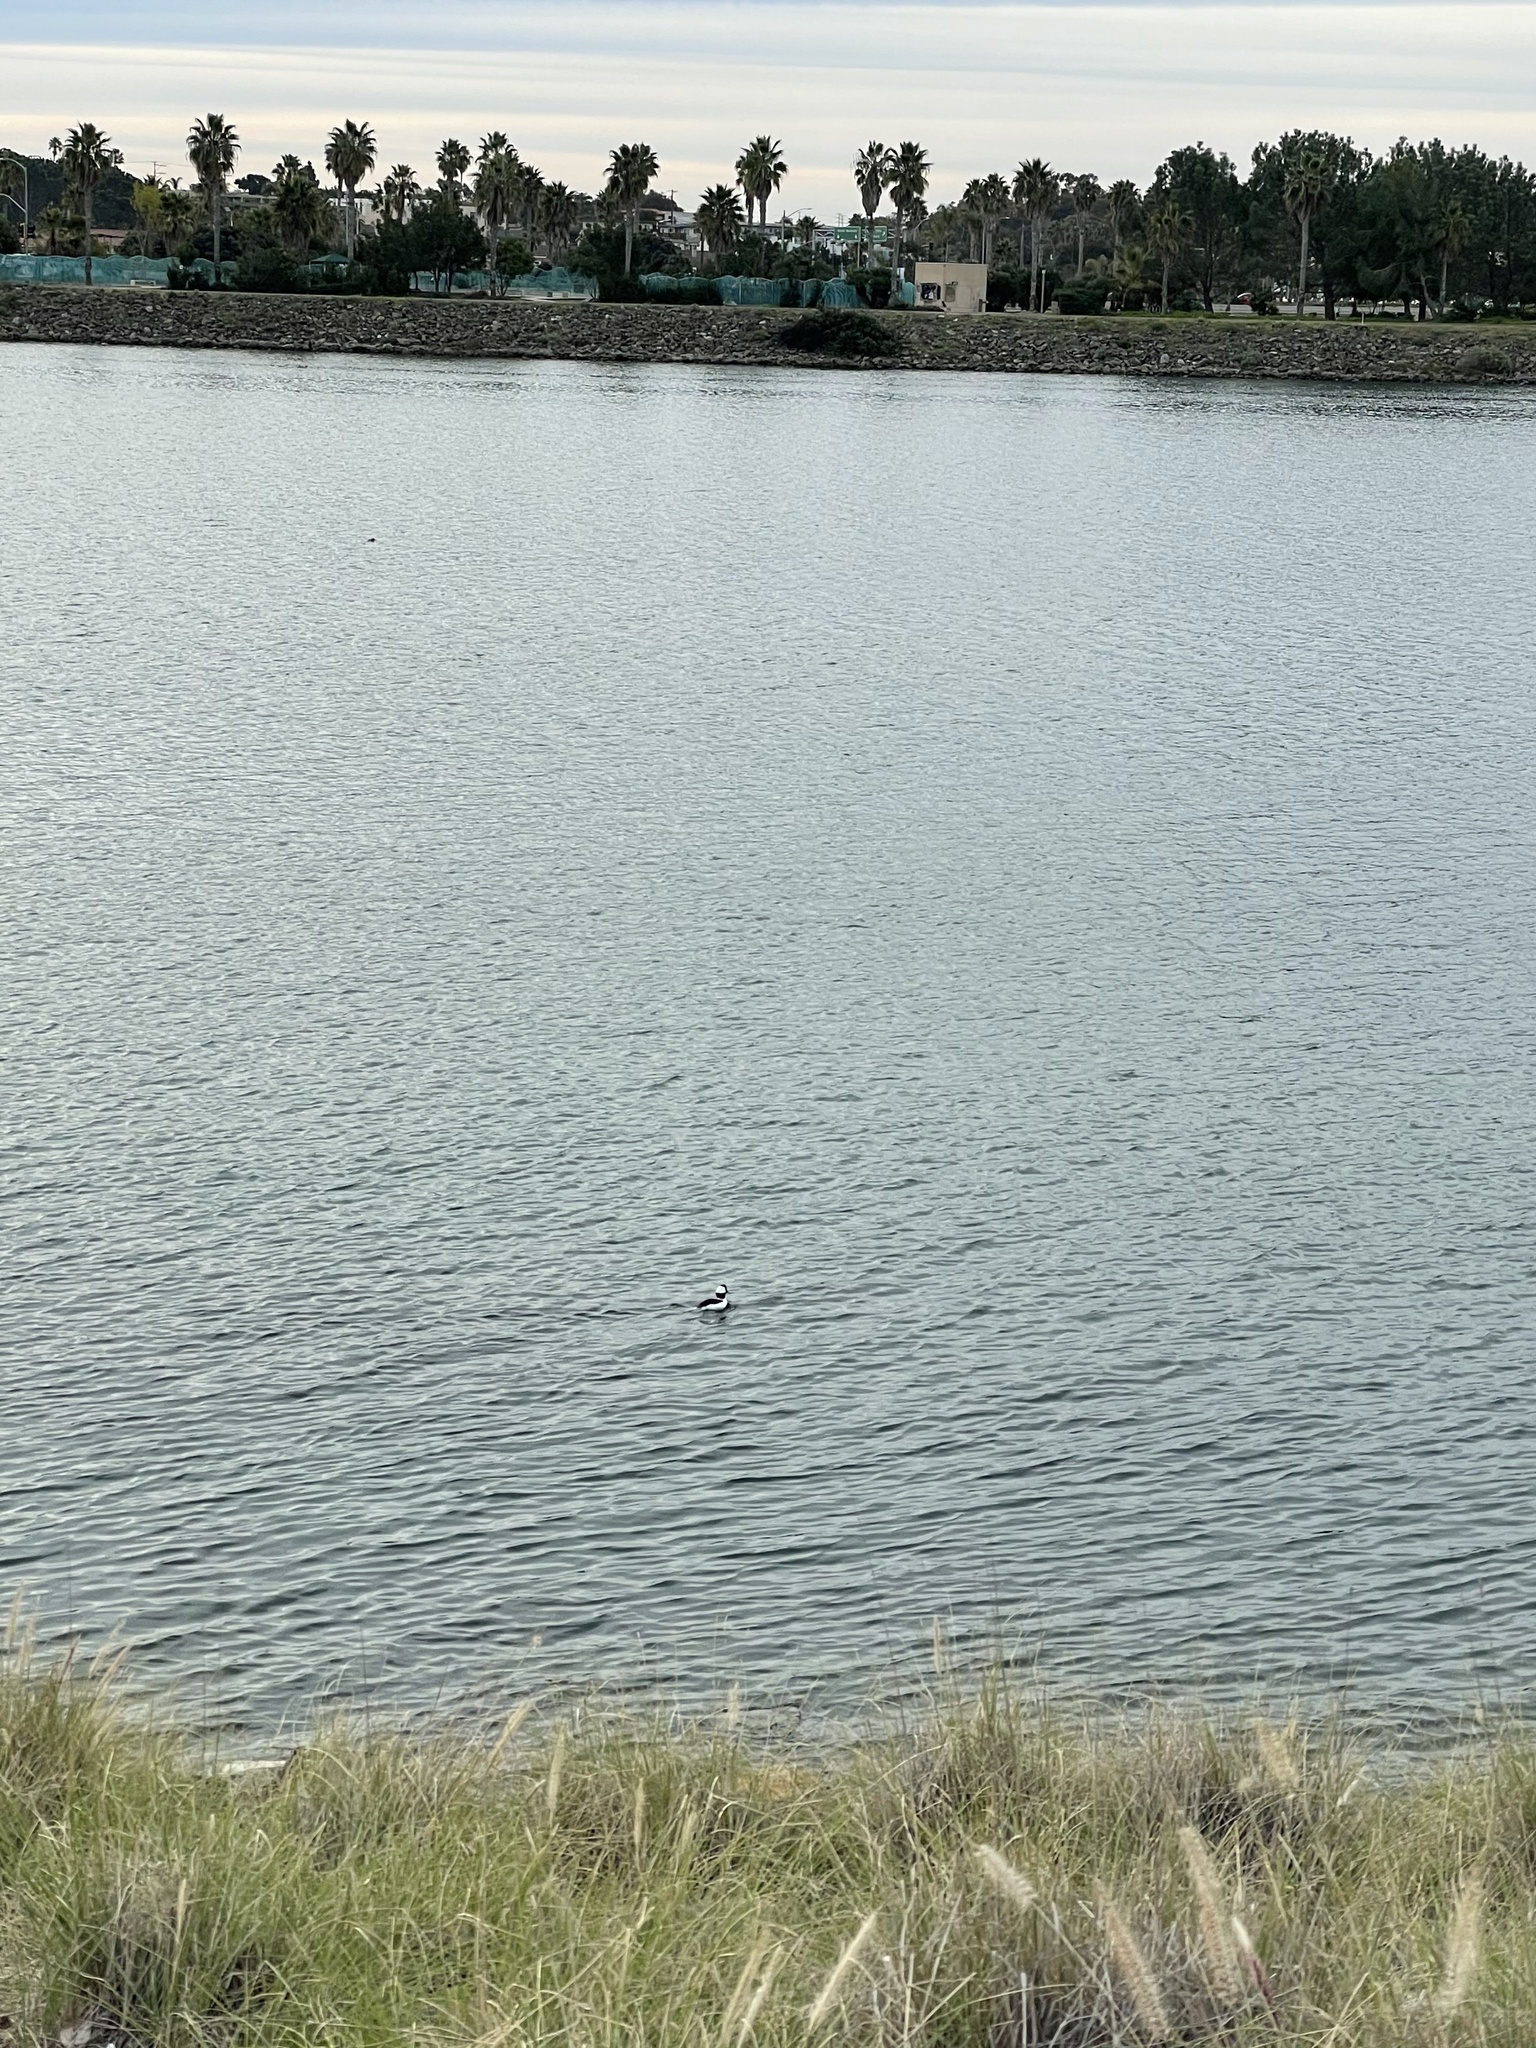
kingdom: Animalia
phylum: Chordata
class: Aves
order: Anseriformes
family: Anatidae
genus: Bucephala
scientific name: Bucephala albeola
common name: Bufflehead
